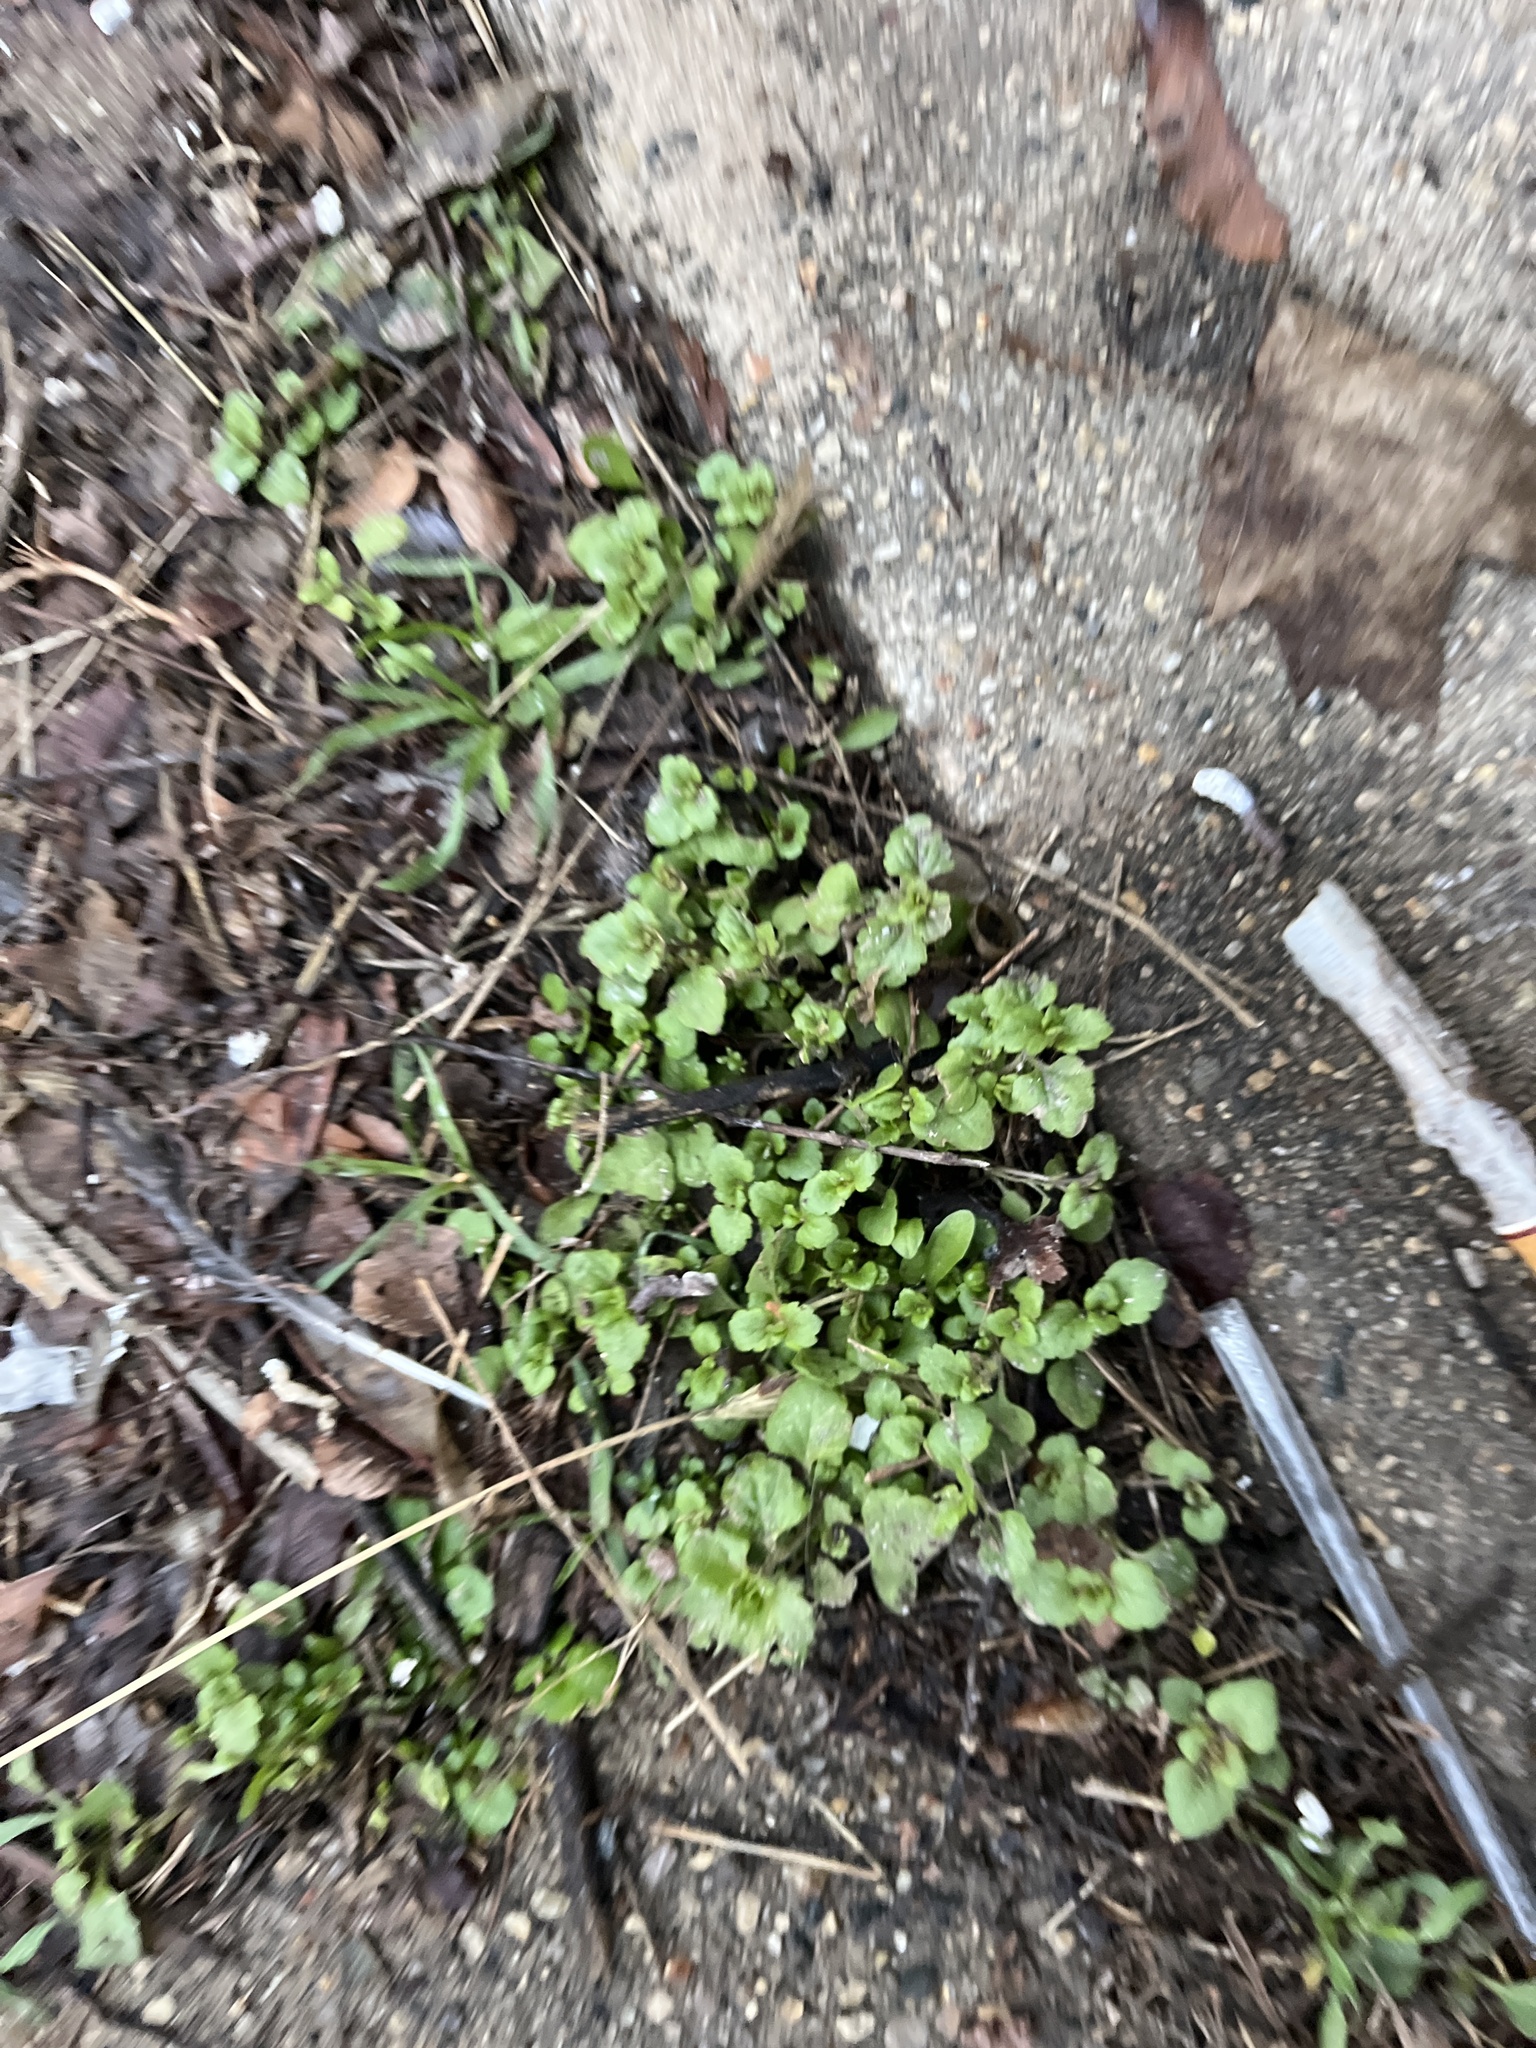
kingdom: Plantae
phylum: Tracheophyta
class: Magnoliopsida
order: Lamiales
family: Lamiaceae
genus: Glechoma
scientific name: Glechoma hederacea
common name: Ground ivy
